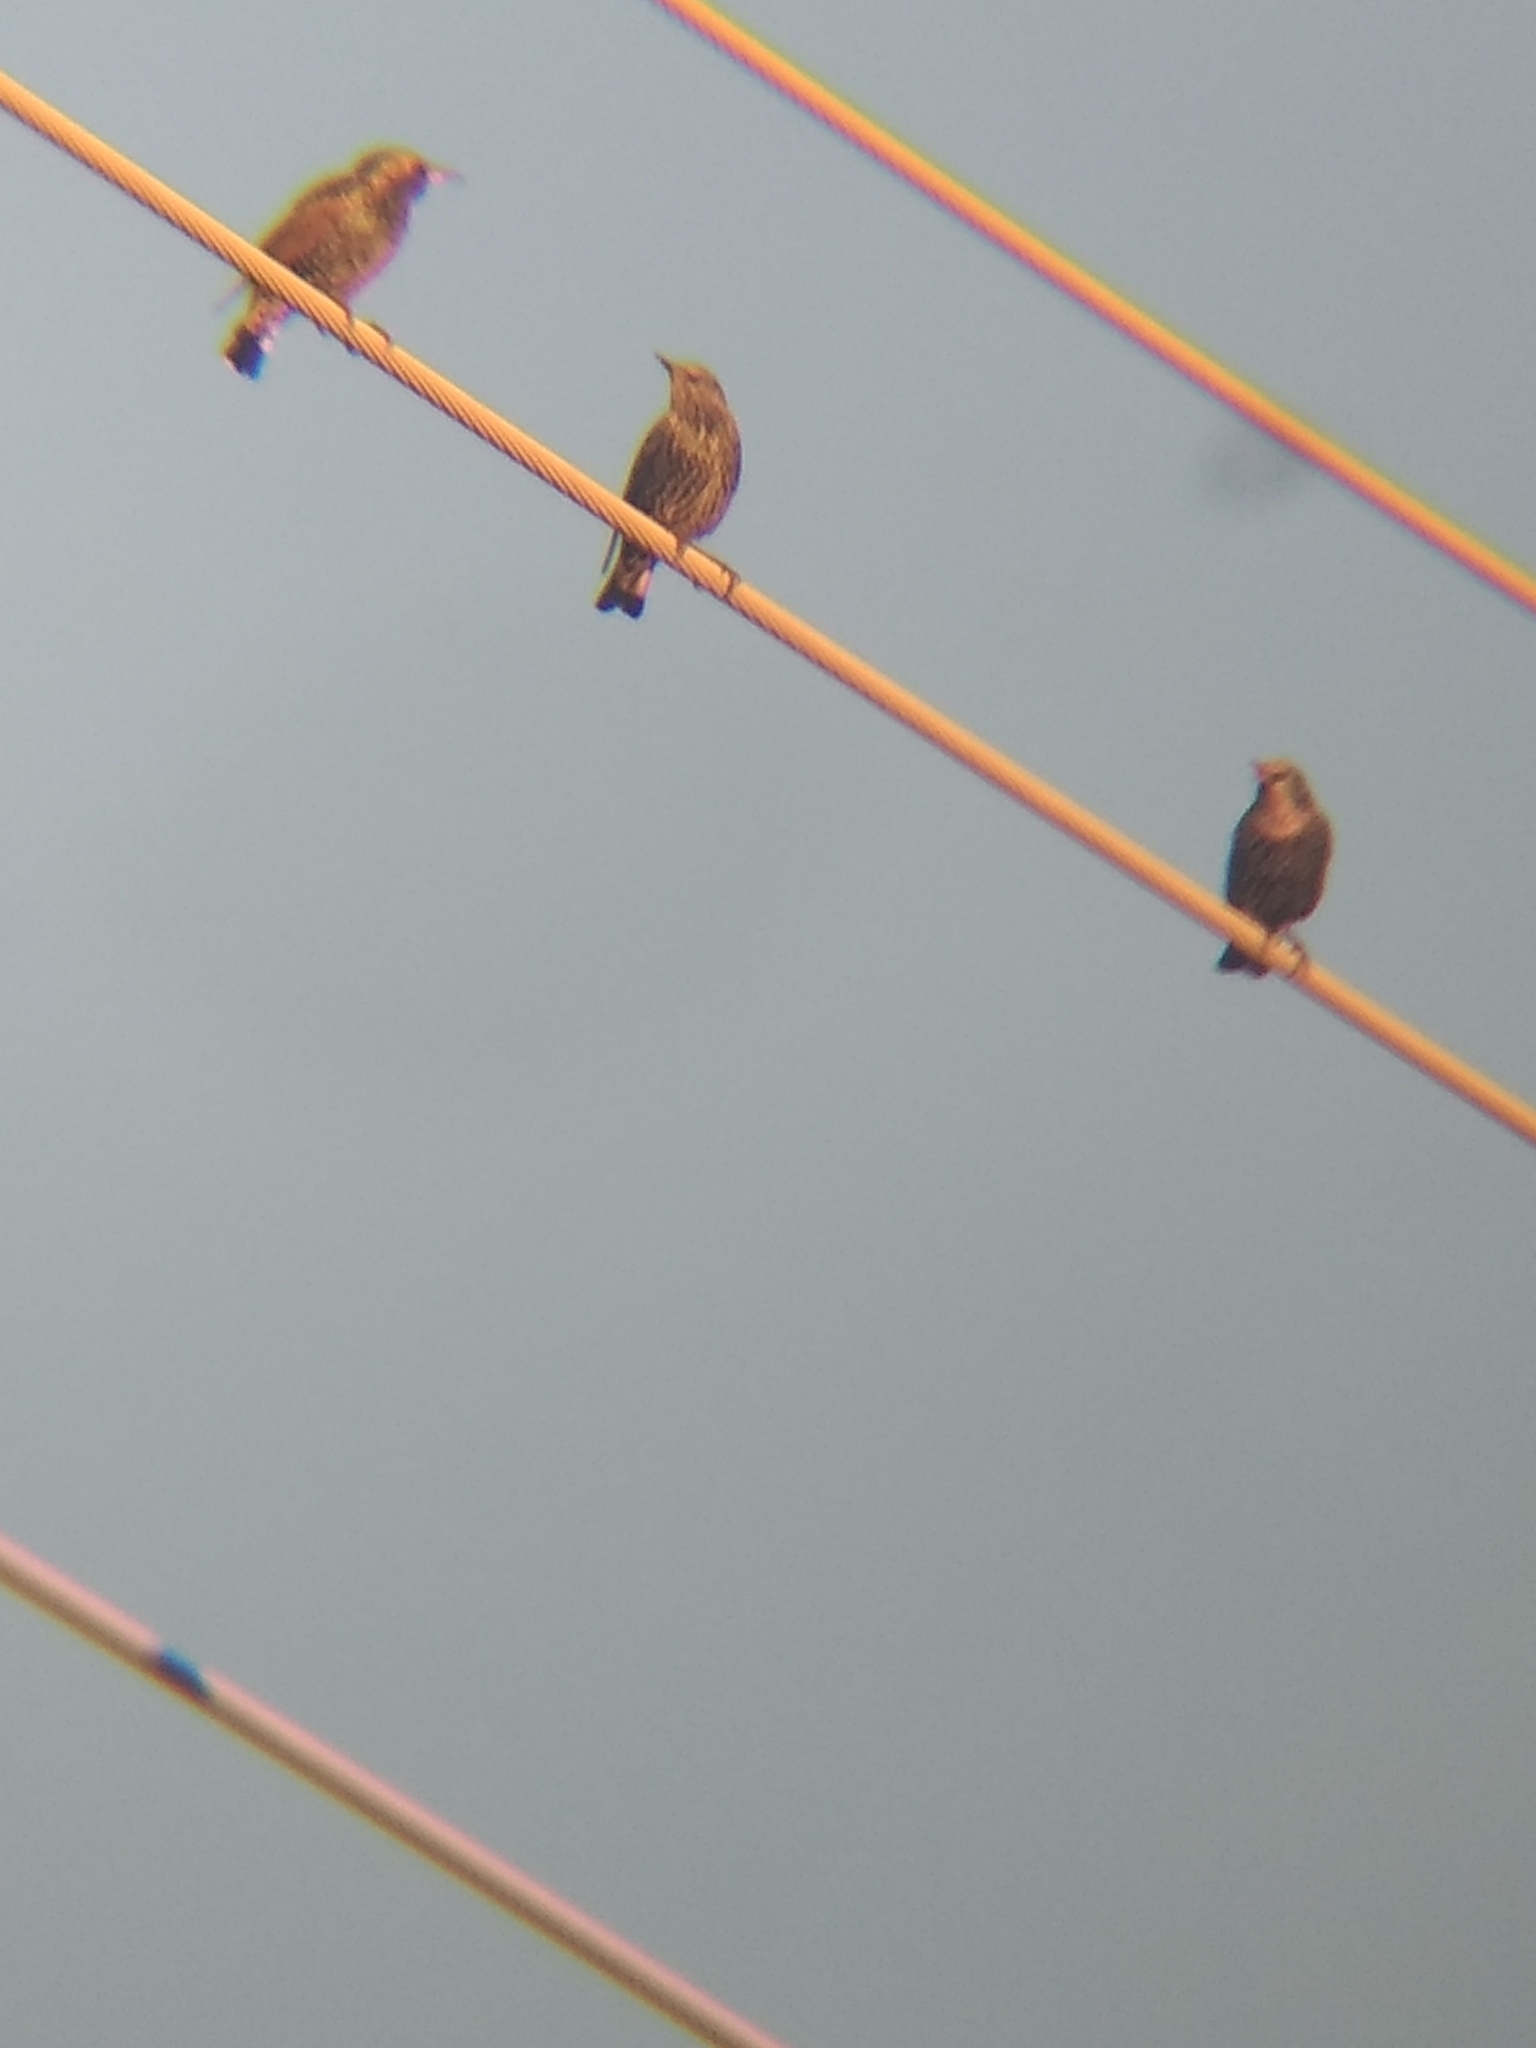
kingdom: Animalia
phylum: Chordata
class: Aves
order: Passeriformes
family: Sturnidae
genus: Sturnus
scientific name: Sturnus vulgaris
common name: Common starling
